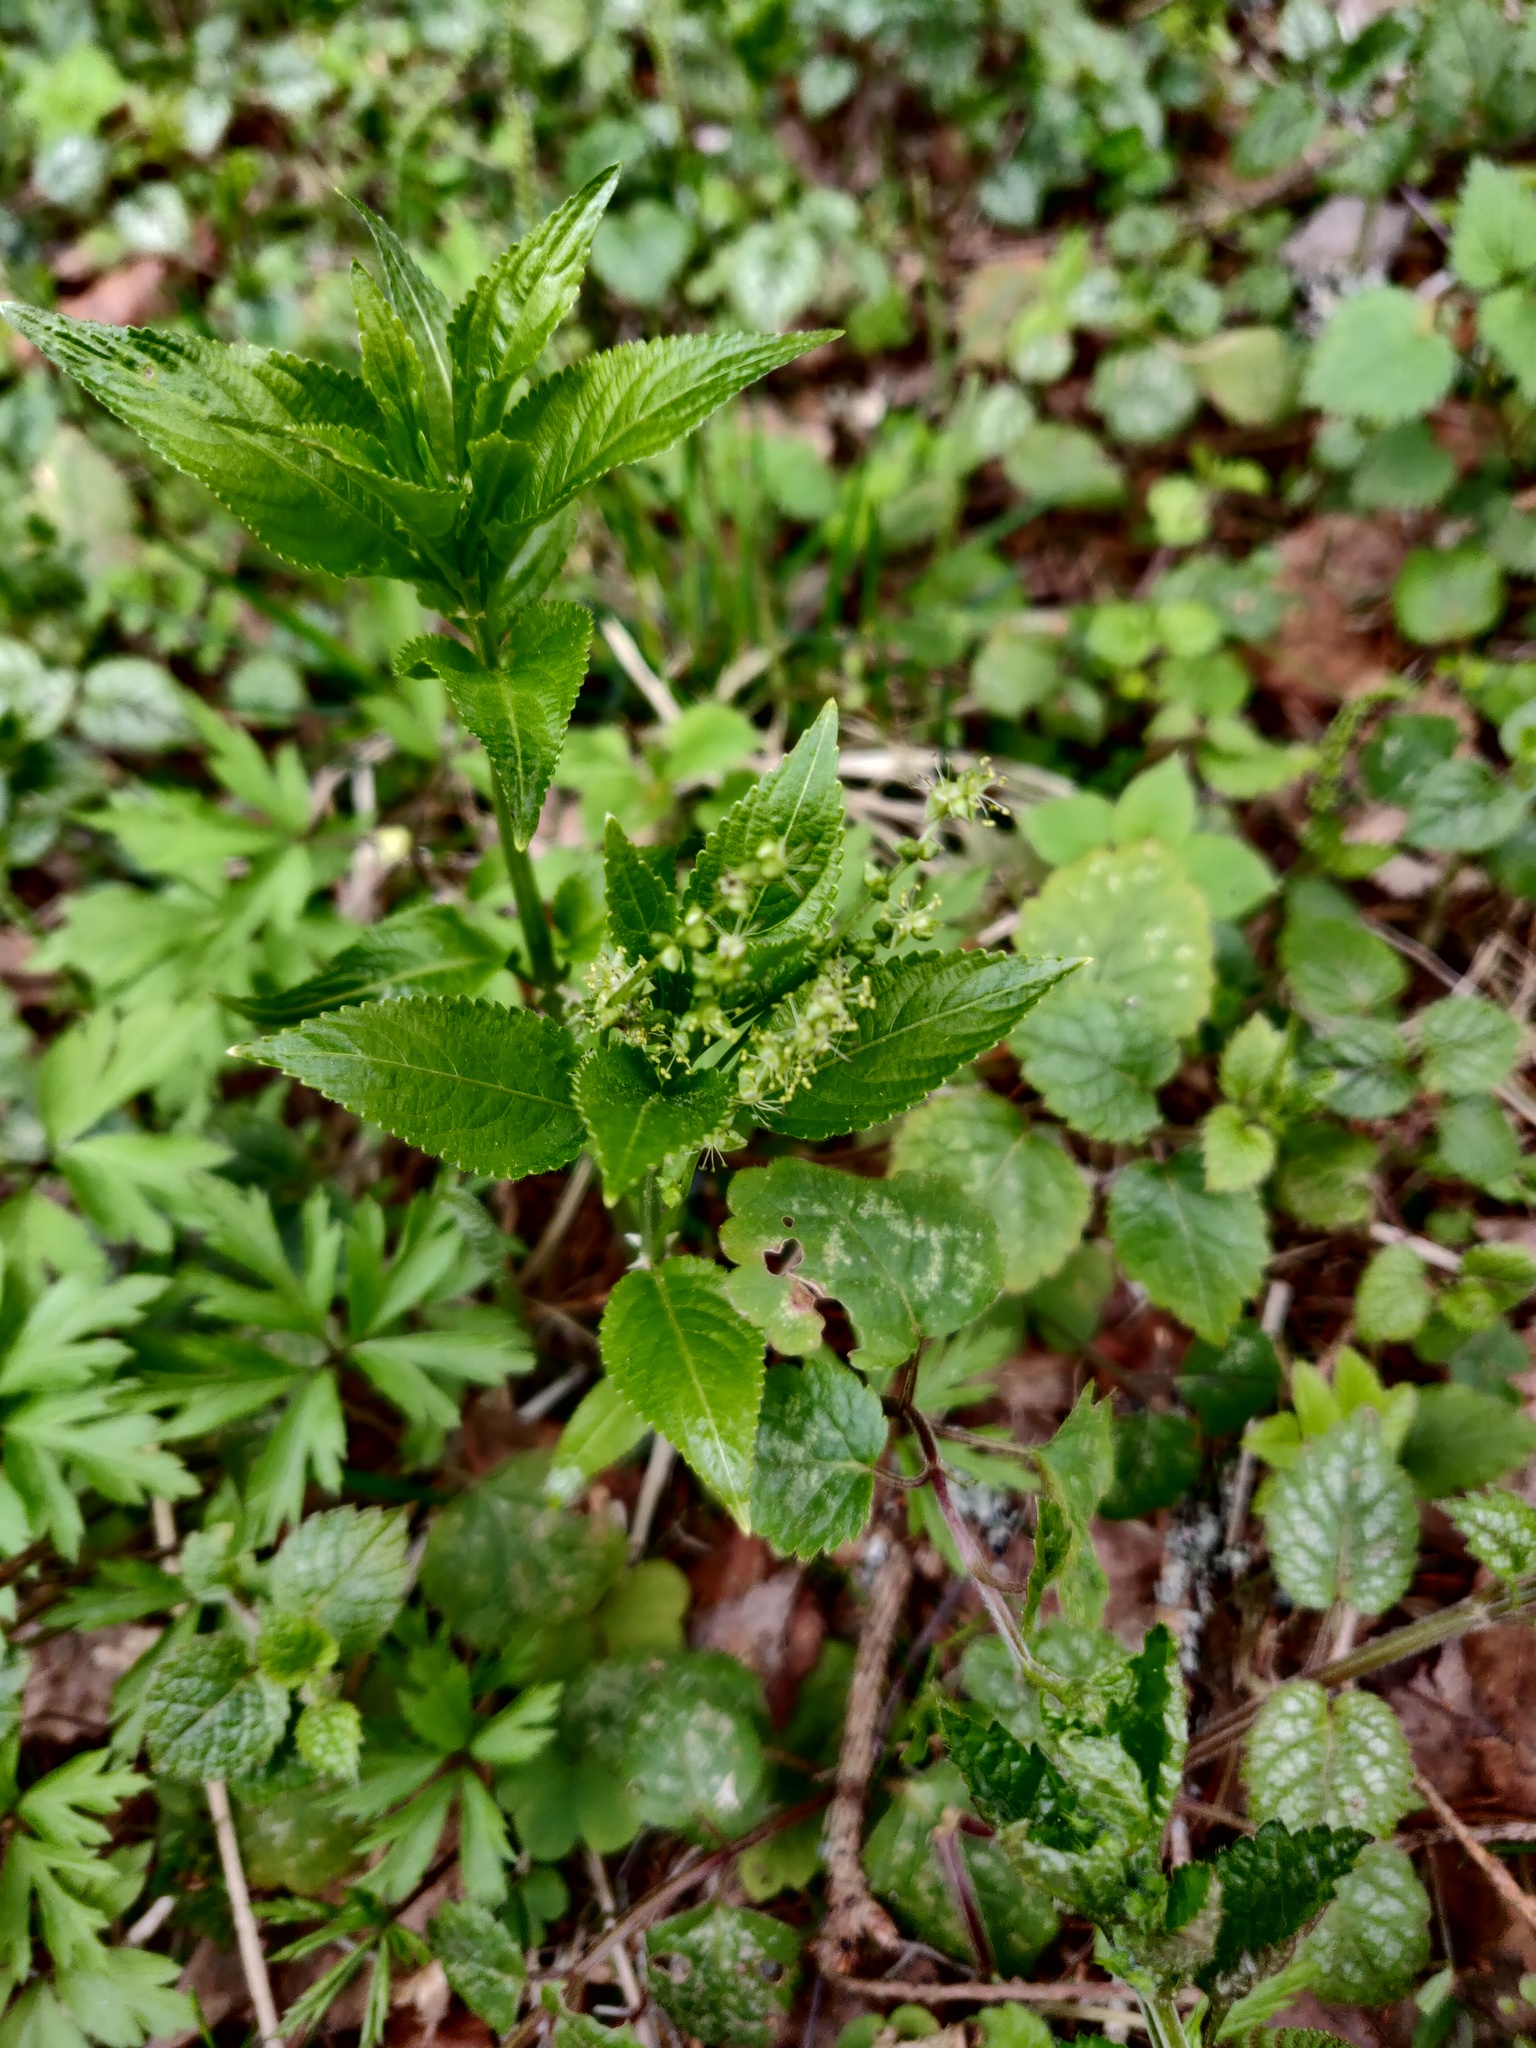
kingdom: Plantae
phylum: Tracheophyta
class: Magnoliopsida
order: Malpighiales
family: Euphorbiaceae
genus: Mercurialis
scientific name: Mercurialis perennis
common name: Dog mercury
